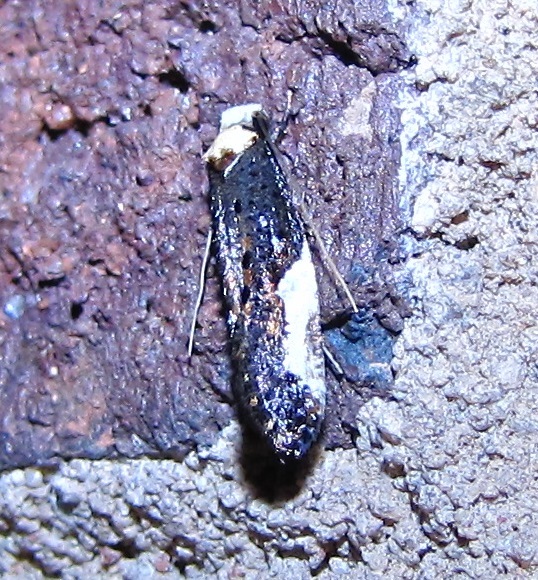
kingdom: Animalia
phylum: Arthropoda
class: Insecta
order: Lepidoptera
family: Tineidae
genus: Monopis
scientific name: Monopis longella
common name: Pavlovski's monopis moth
